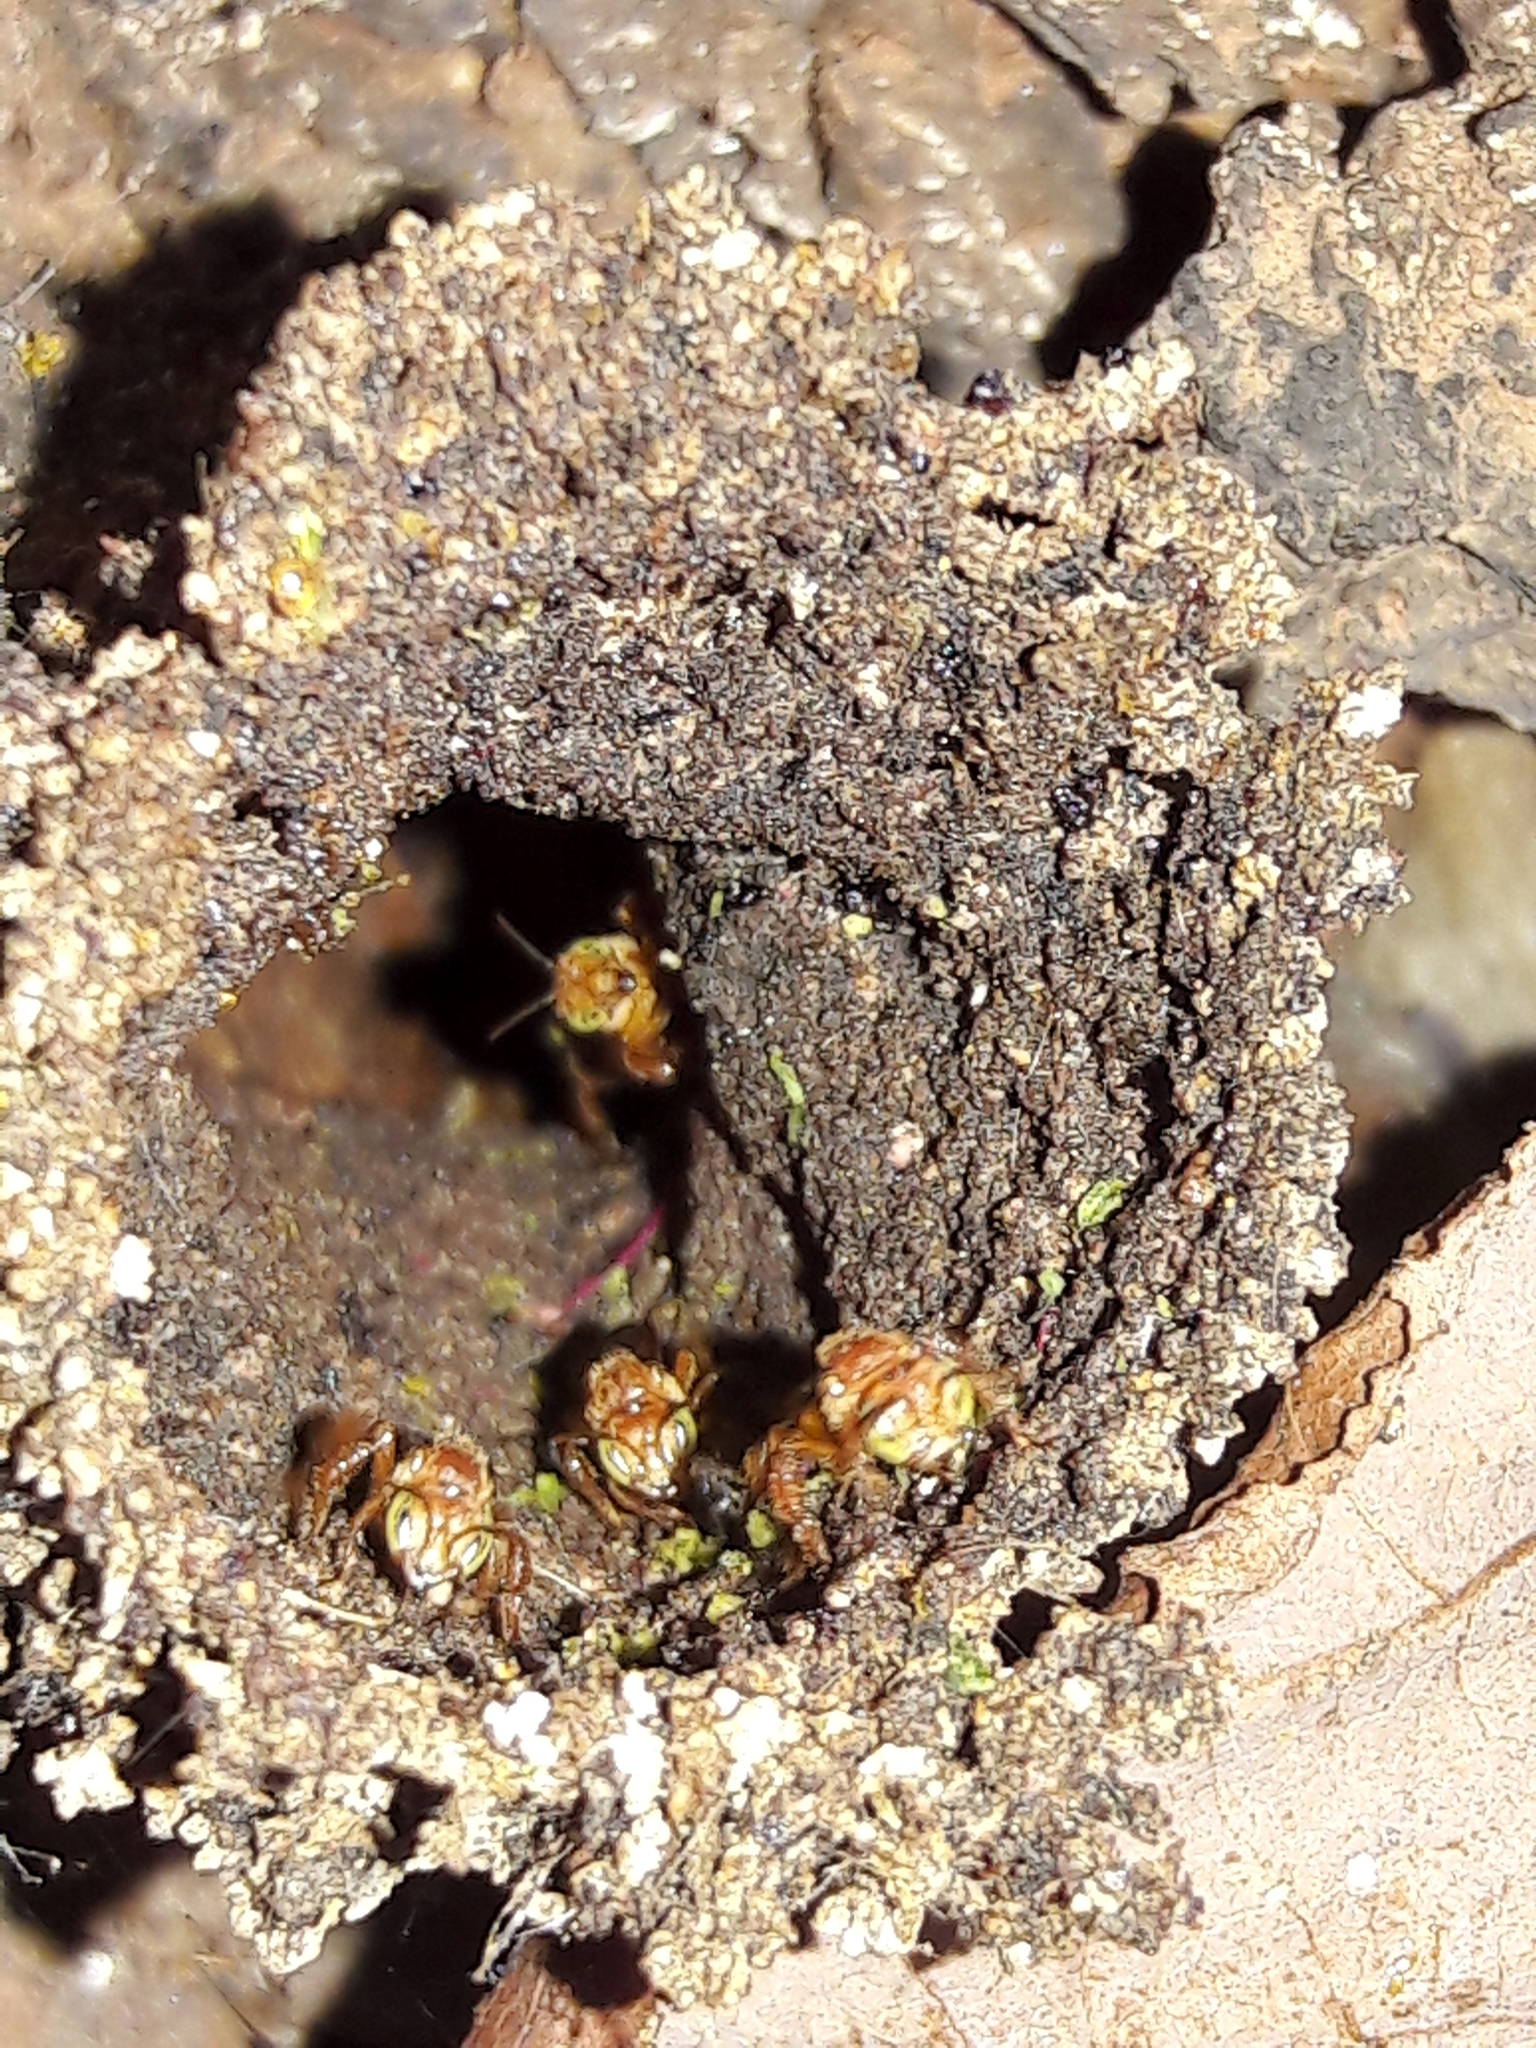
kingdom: Animalia
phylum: Arthropoda
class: Insecta
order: Hymenoptera
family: Apidae
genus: Trigona
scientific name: Trigona pallens
